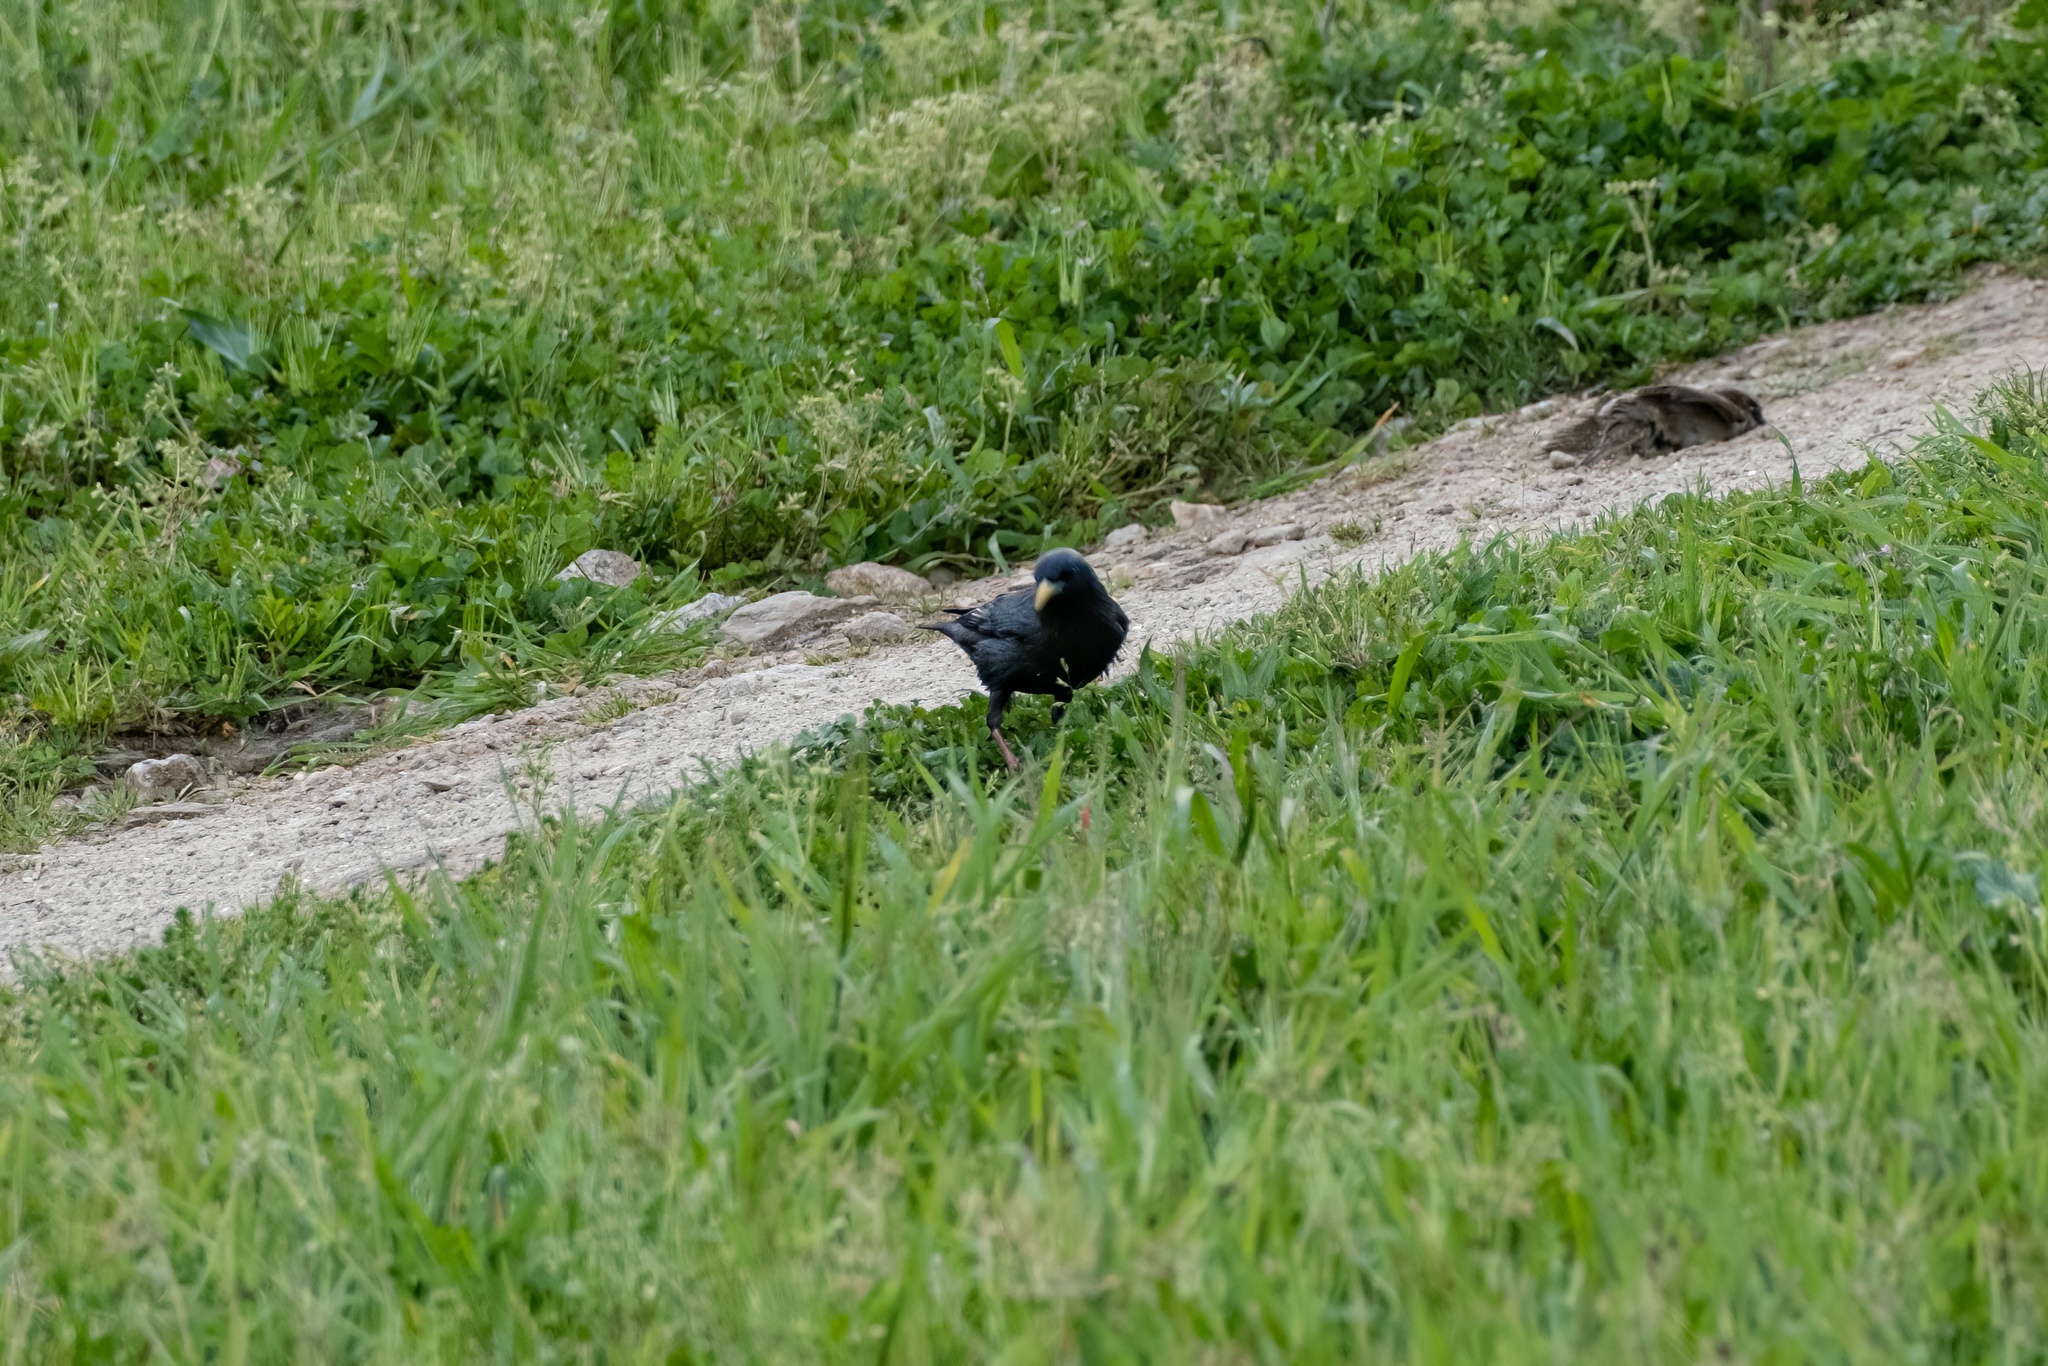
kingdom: Animalia
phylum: Chordata
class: Aves
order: Passeriformes
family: Sturnidae
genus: Sturnus
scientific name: Sturnus unicolor
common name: Spotless starling
